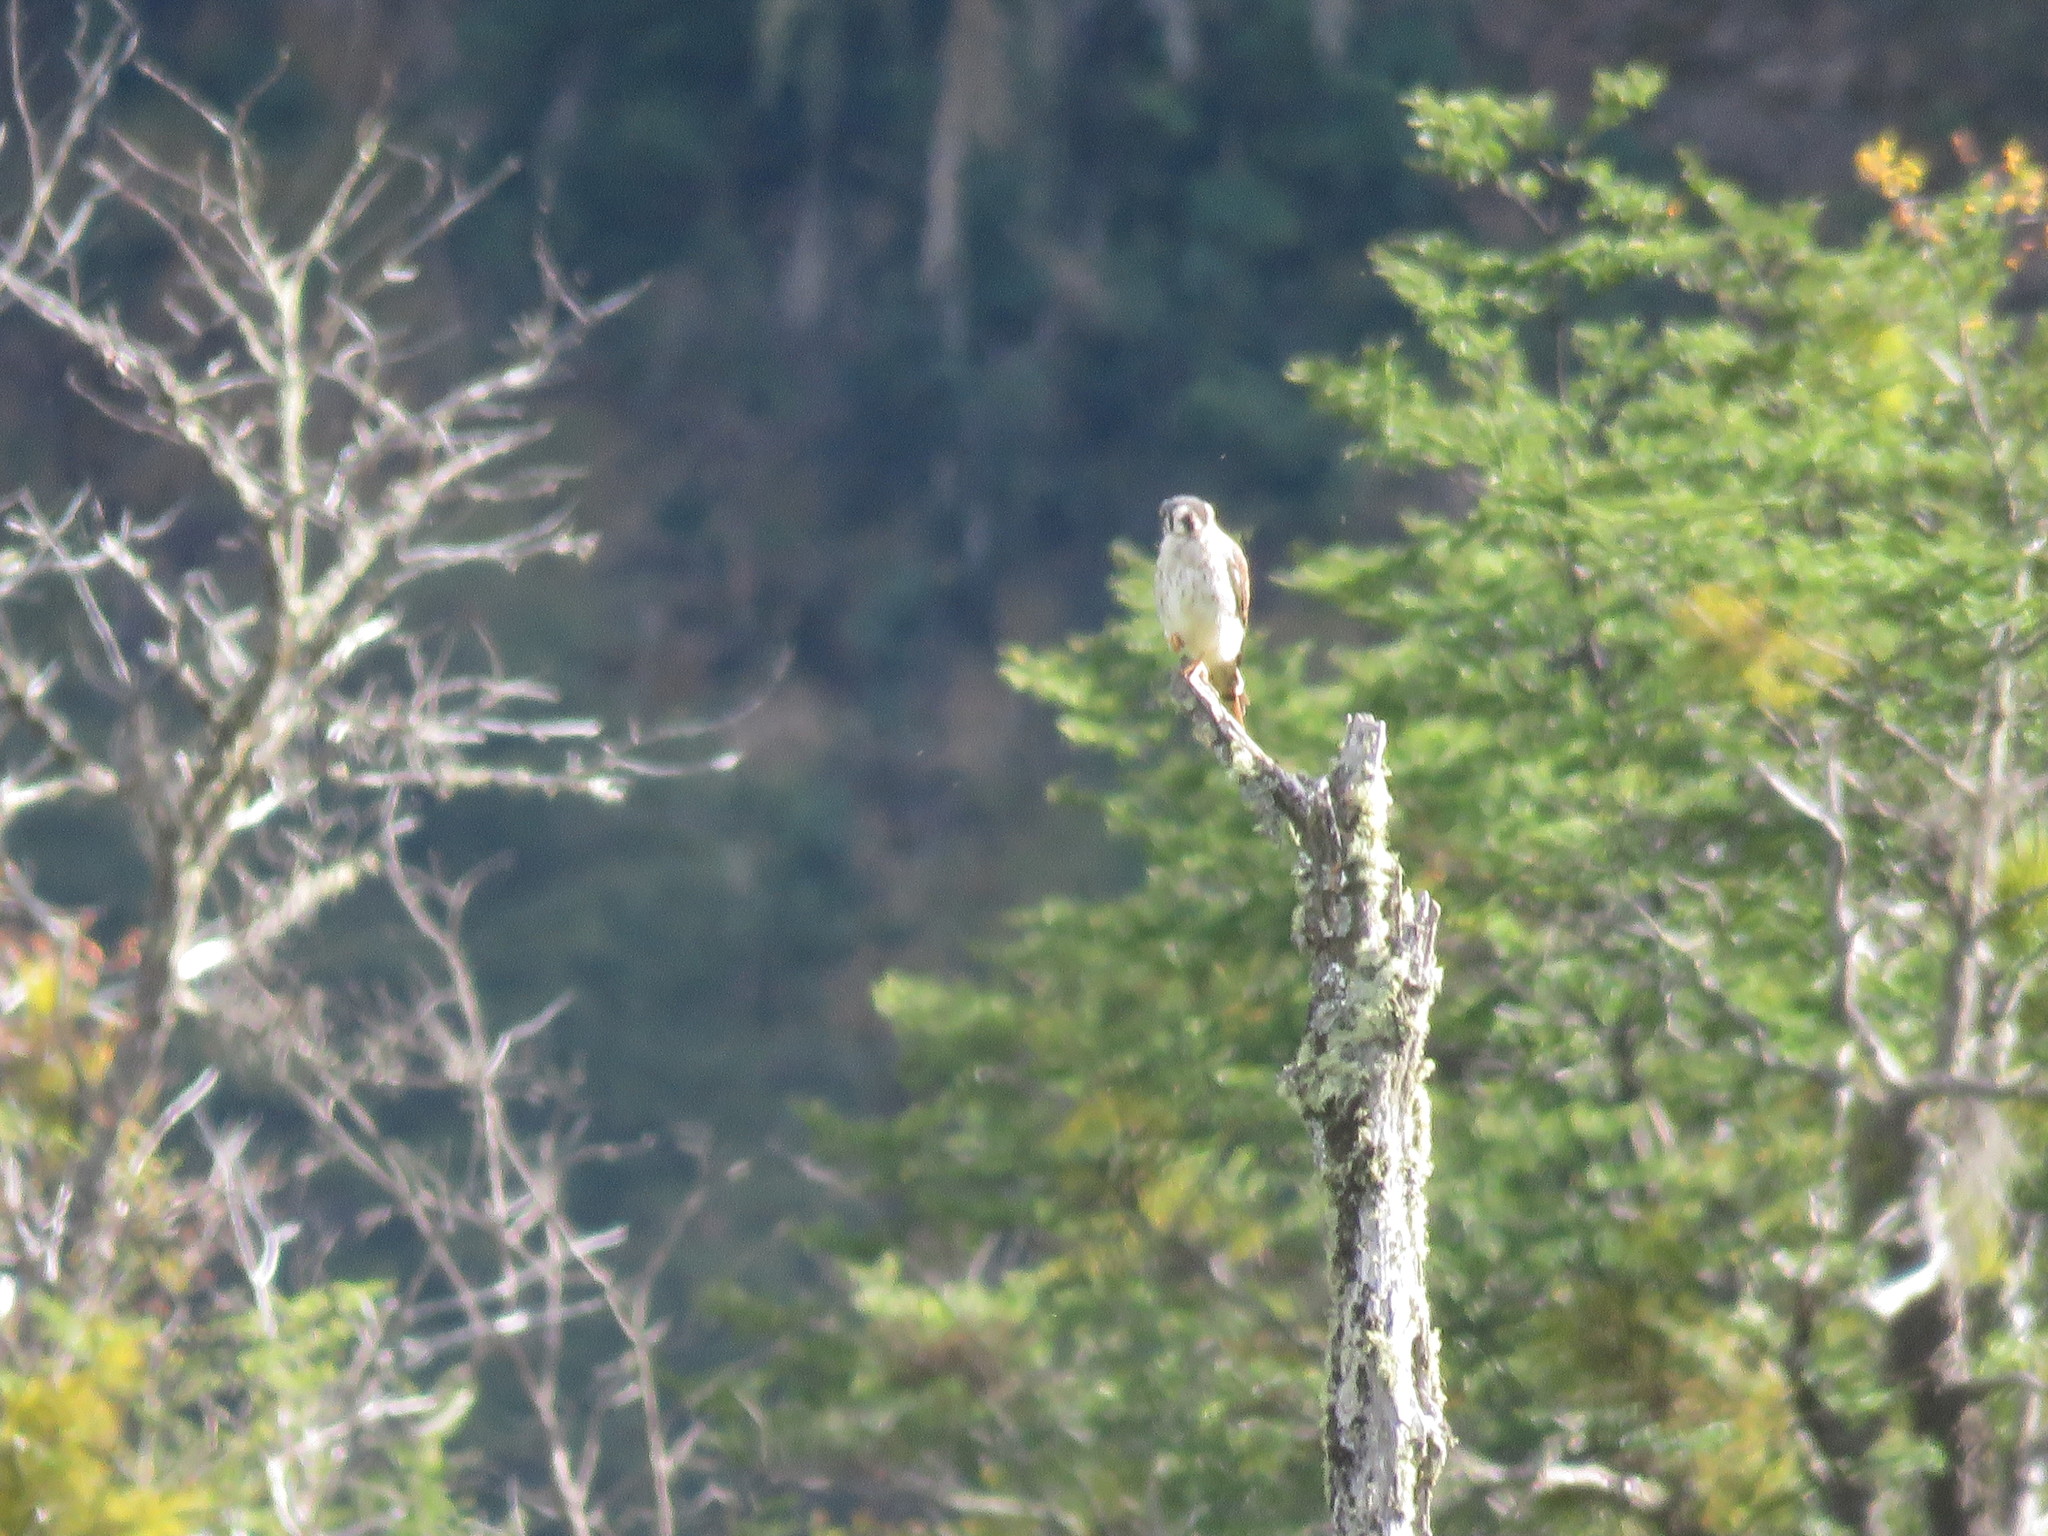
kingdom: Animalia
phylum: Chordata
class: Aves
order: Falconiformes
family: Falconidae
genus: Falco
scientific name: Falco sparverius
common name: American kestrel
